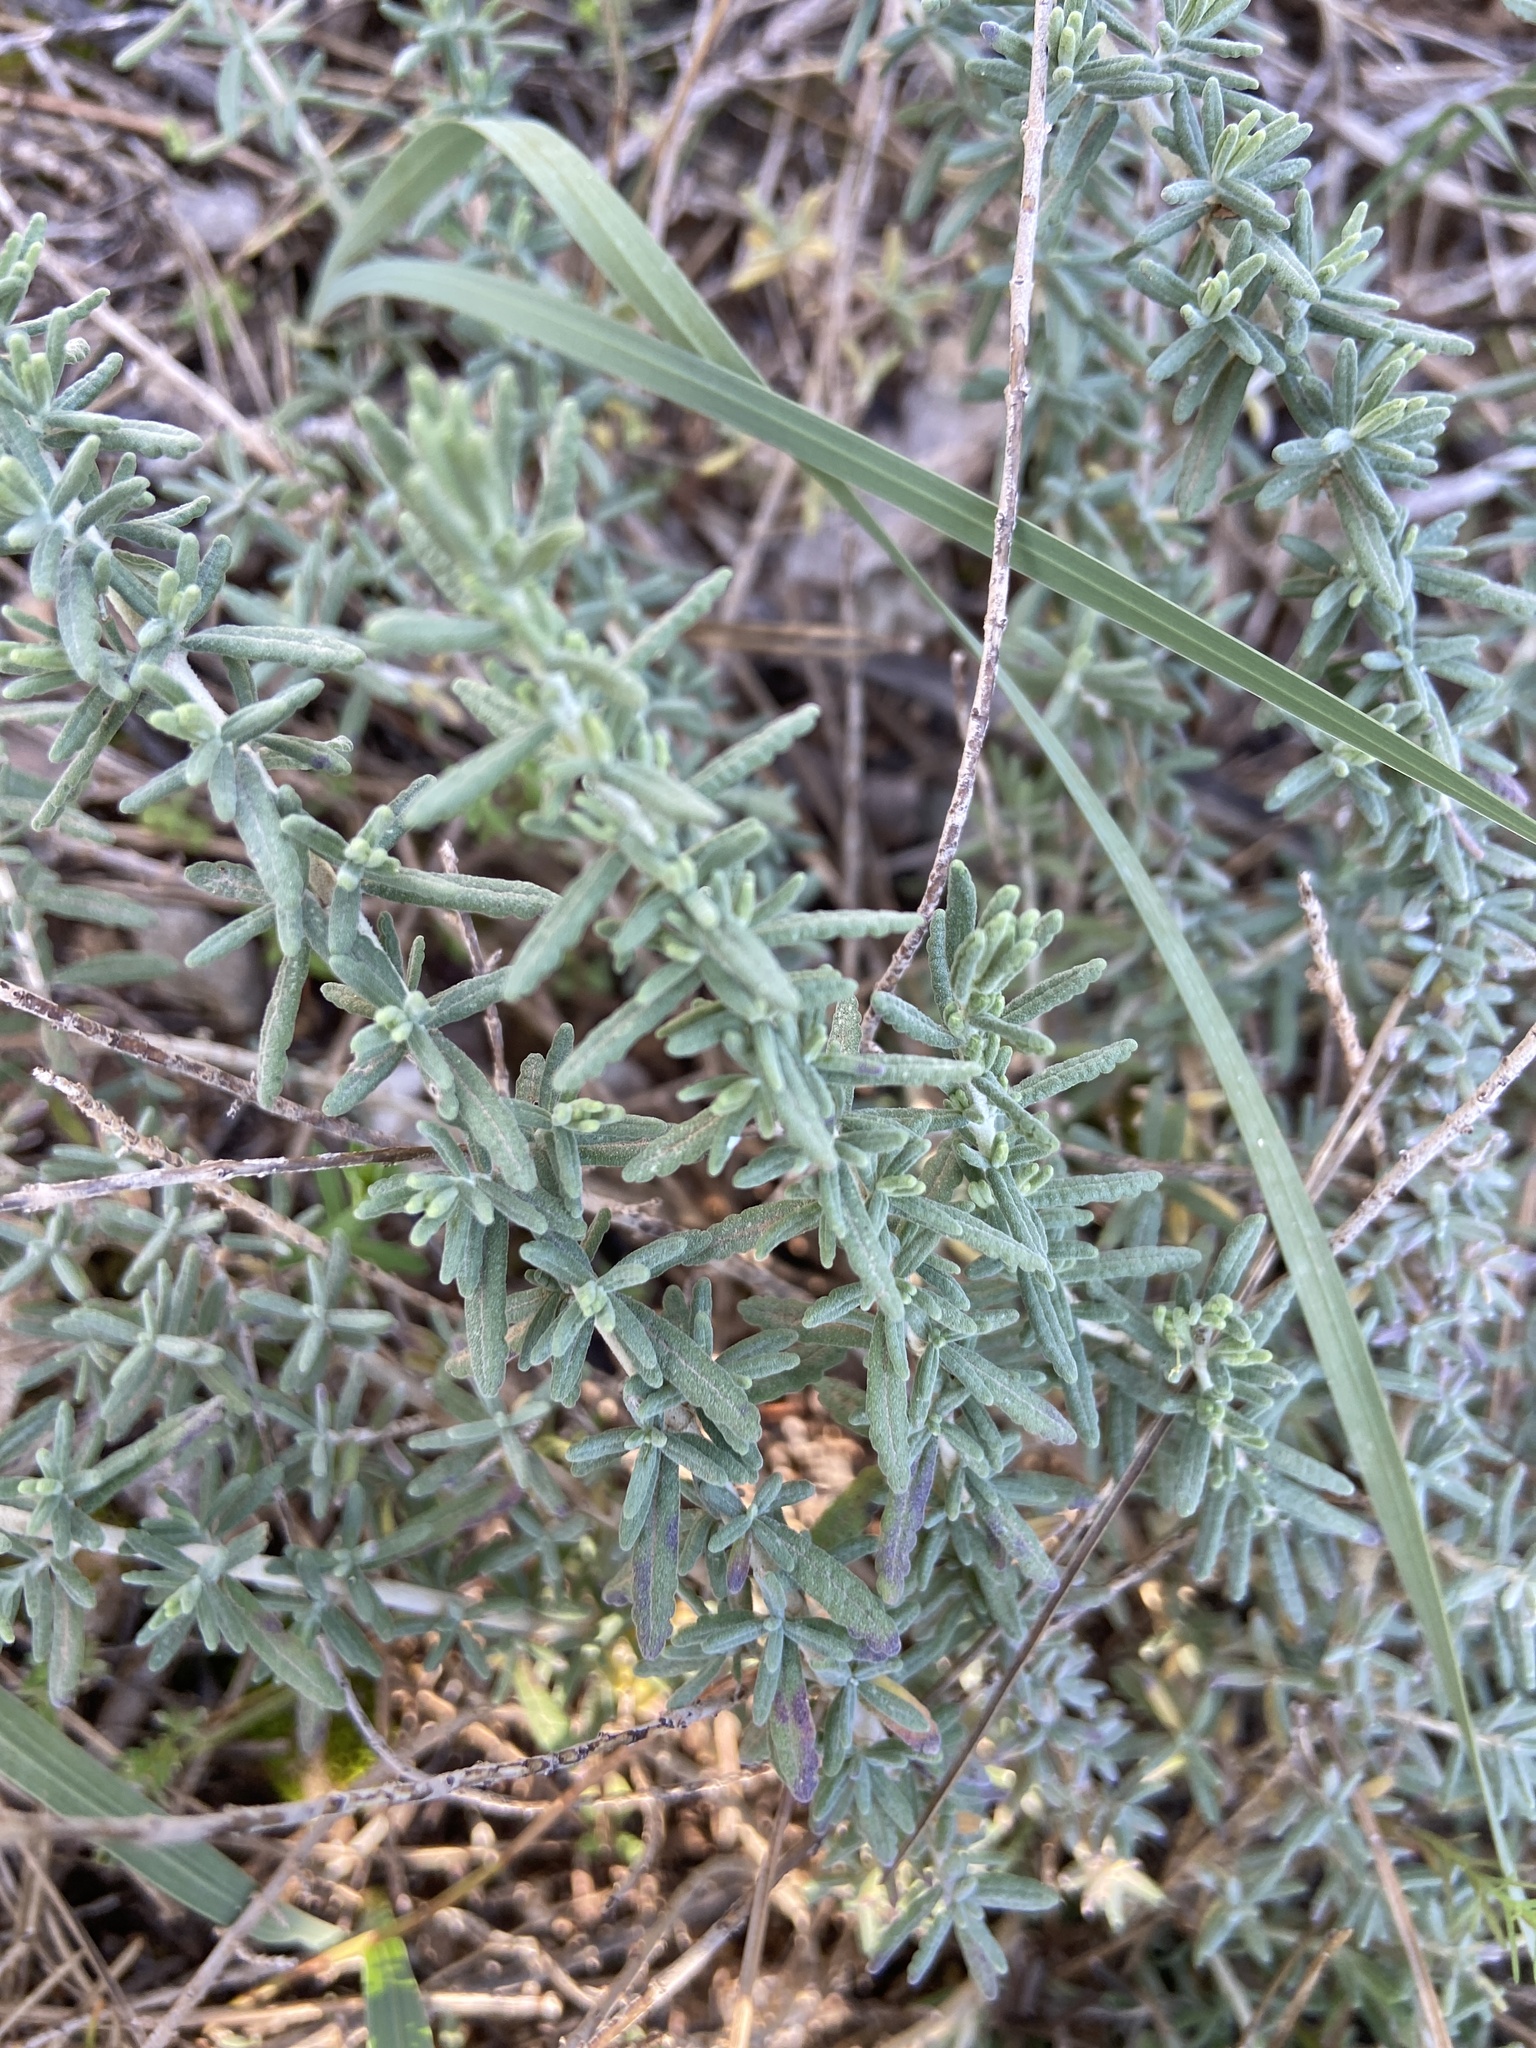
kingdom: Plantae
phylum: Tracheophyta
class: Magnoliopsida
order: Lamiales
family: Lamiaceae
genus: Teucrium
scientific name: Teucrium capitatum
